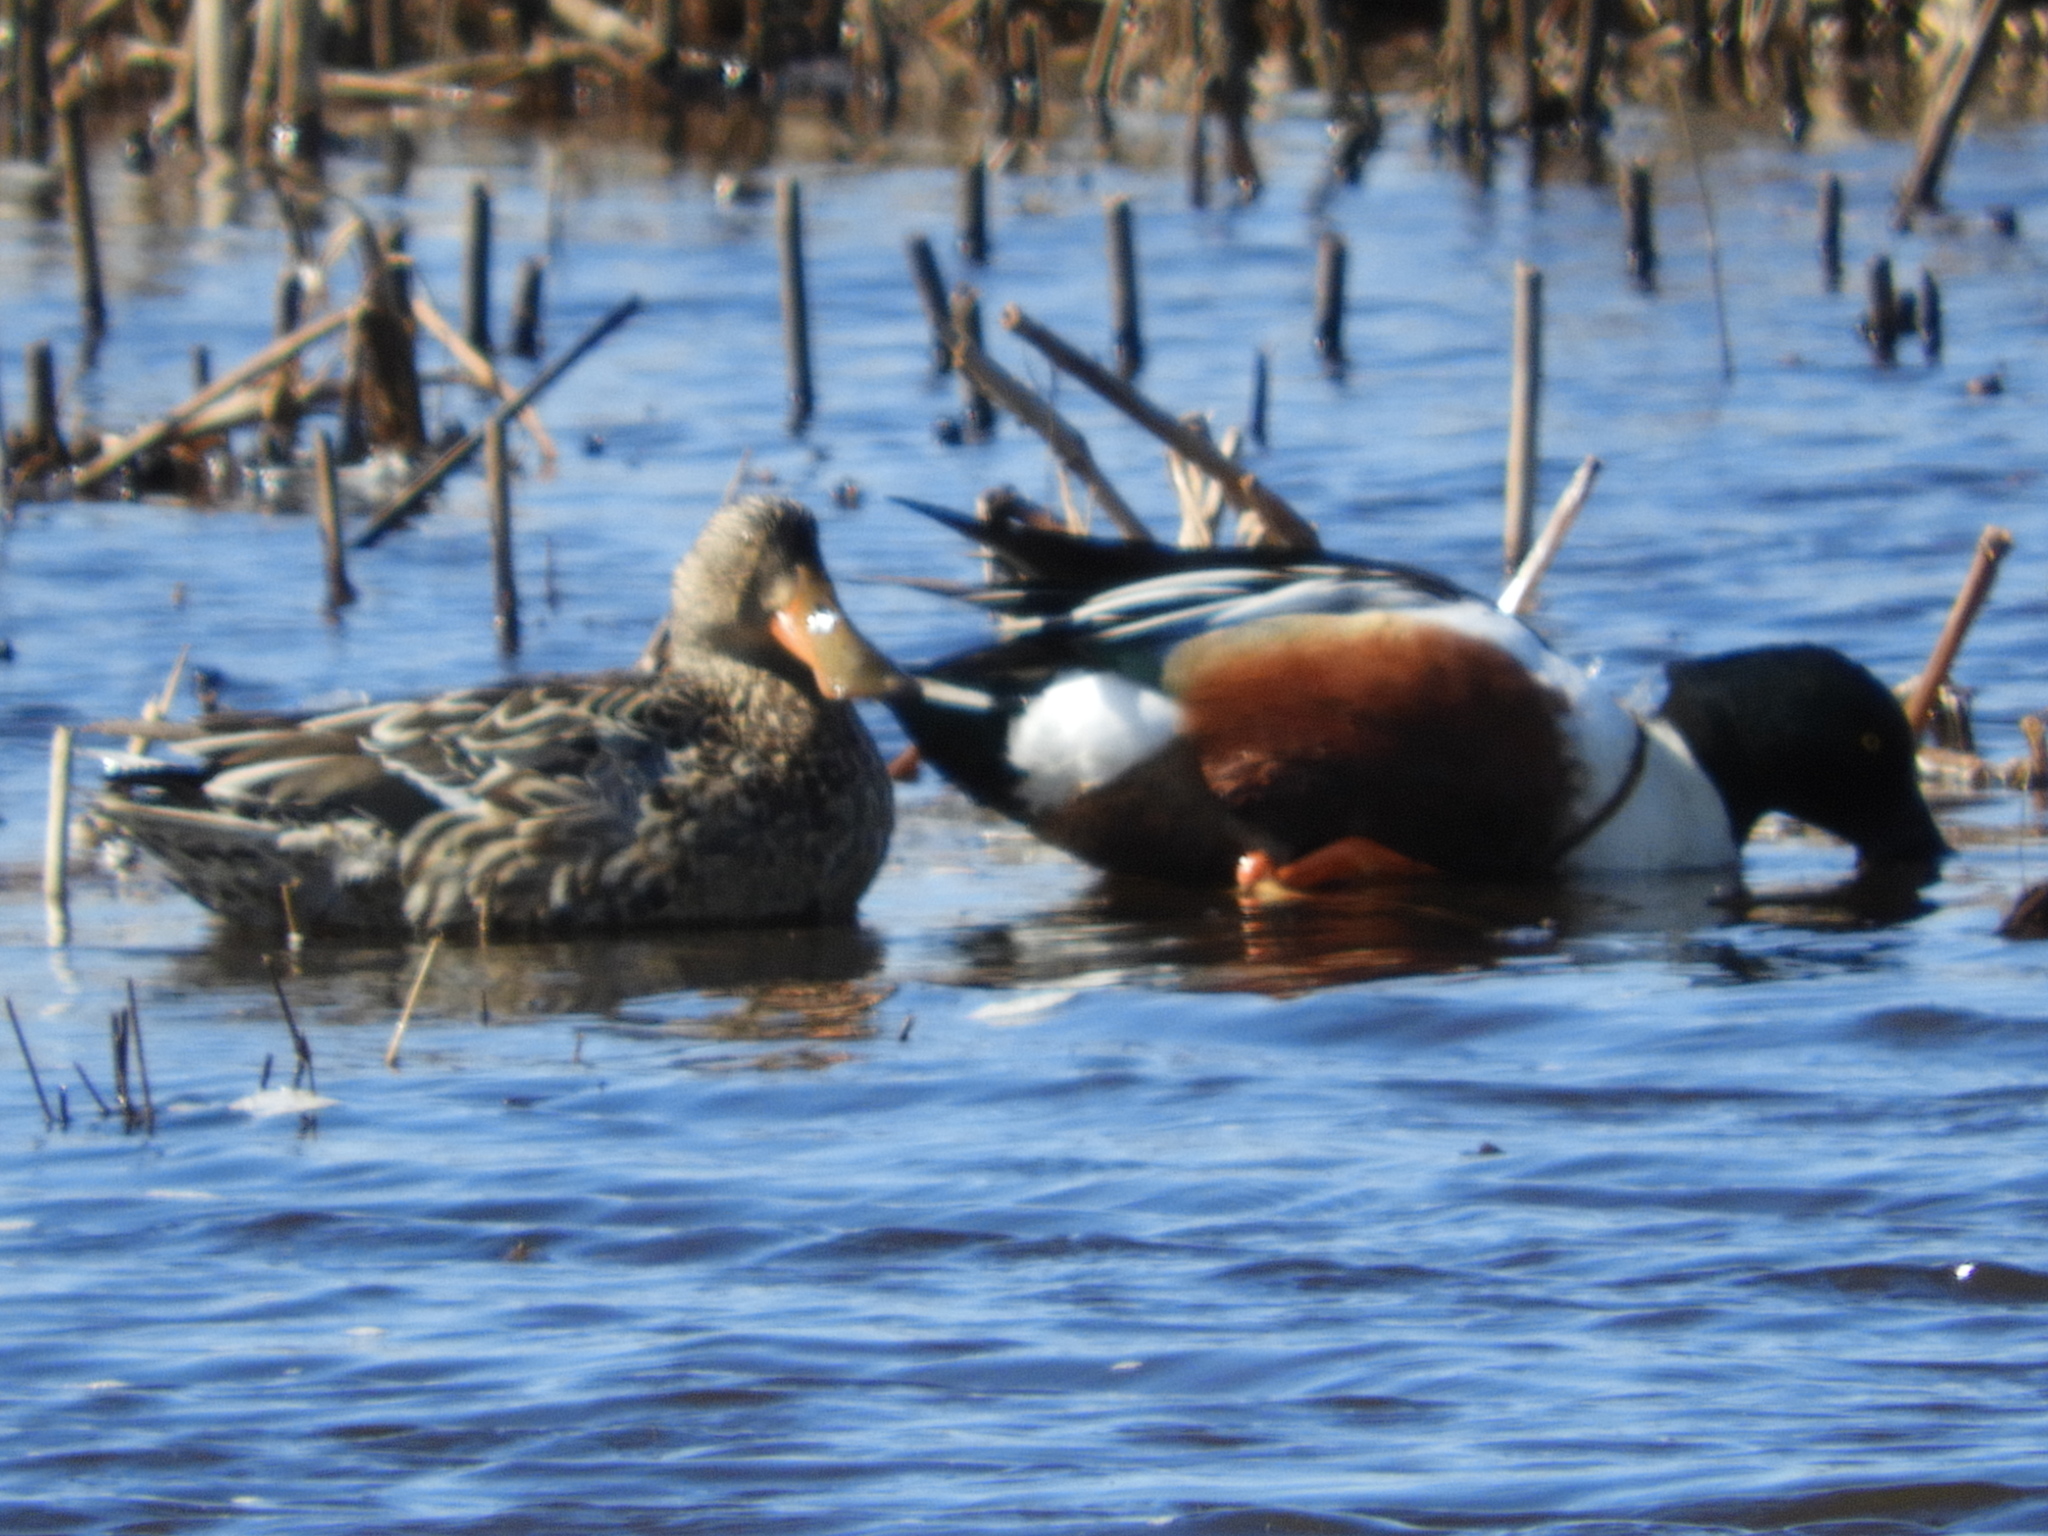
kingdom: Animalia
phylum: Chordata
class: Aves
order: Anseriformes
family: Anatidae
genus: Spatula
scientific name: Spatula clypeata
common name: Northern shoveler
